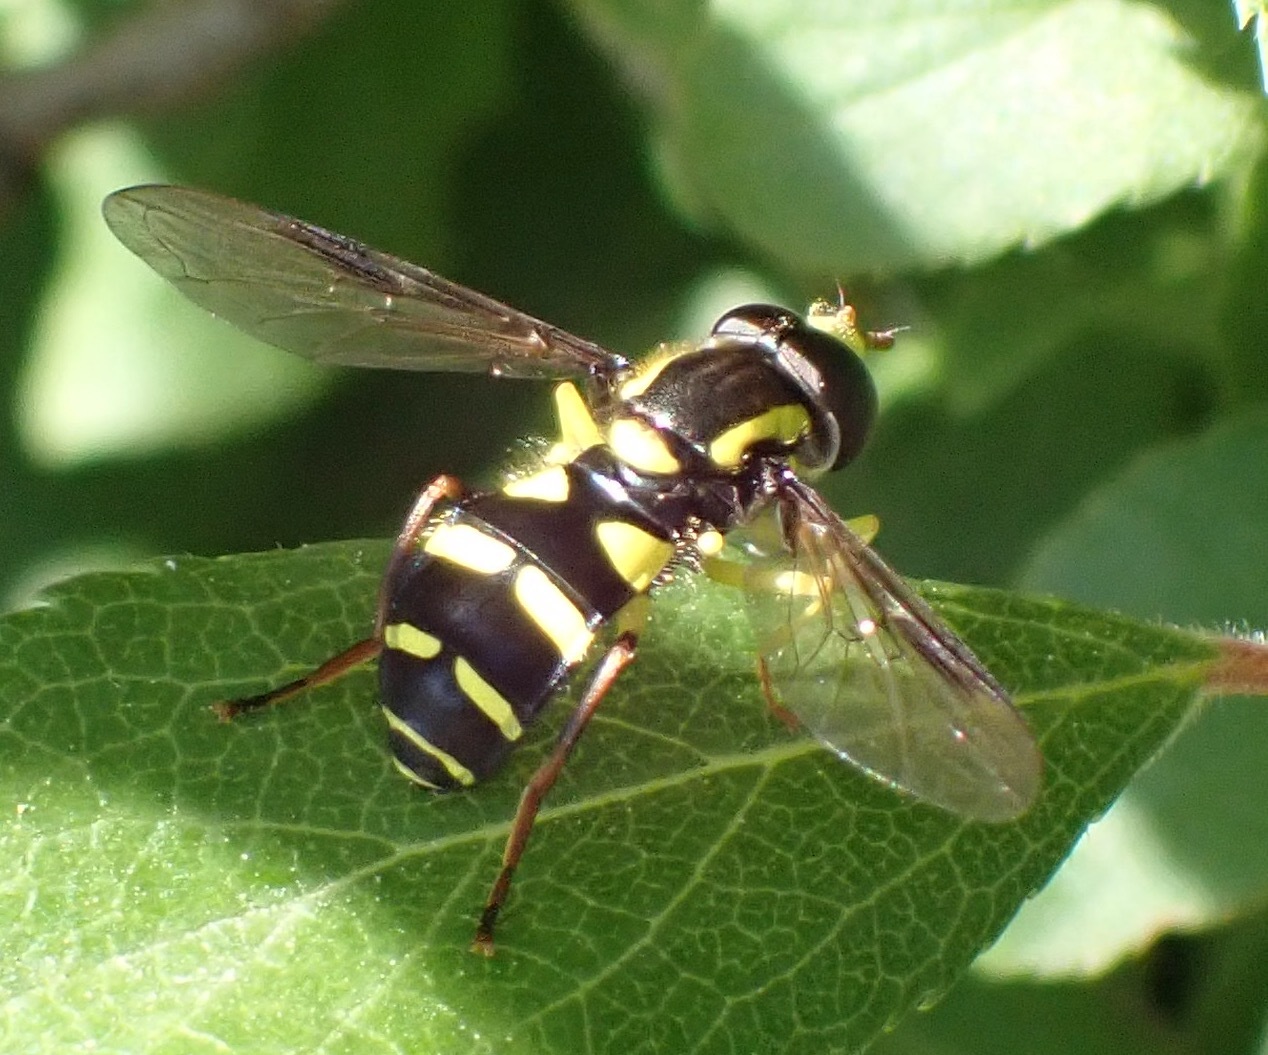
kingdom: Animalia
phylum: Arthropoda
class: Insecta
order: Diptera
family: Syrphidae
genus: Philhelius
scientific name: Philhelius pedissequum
